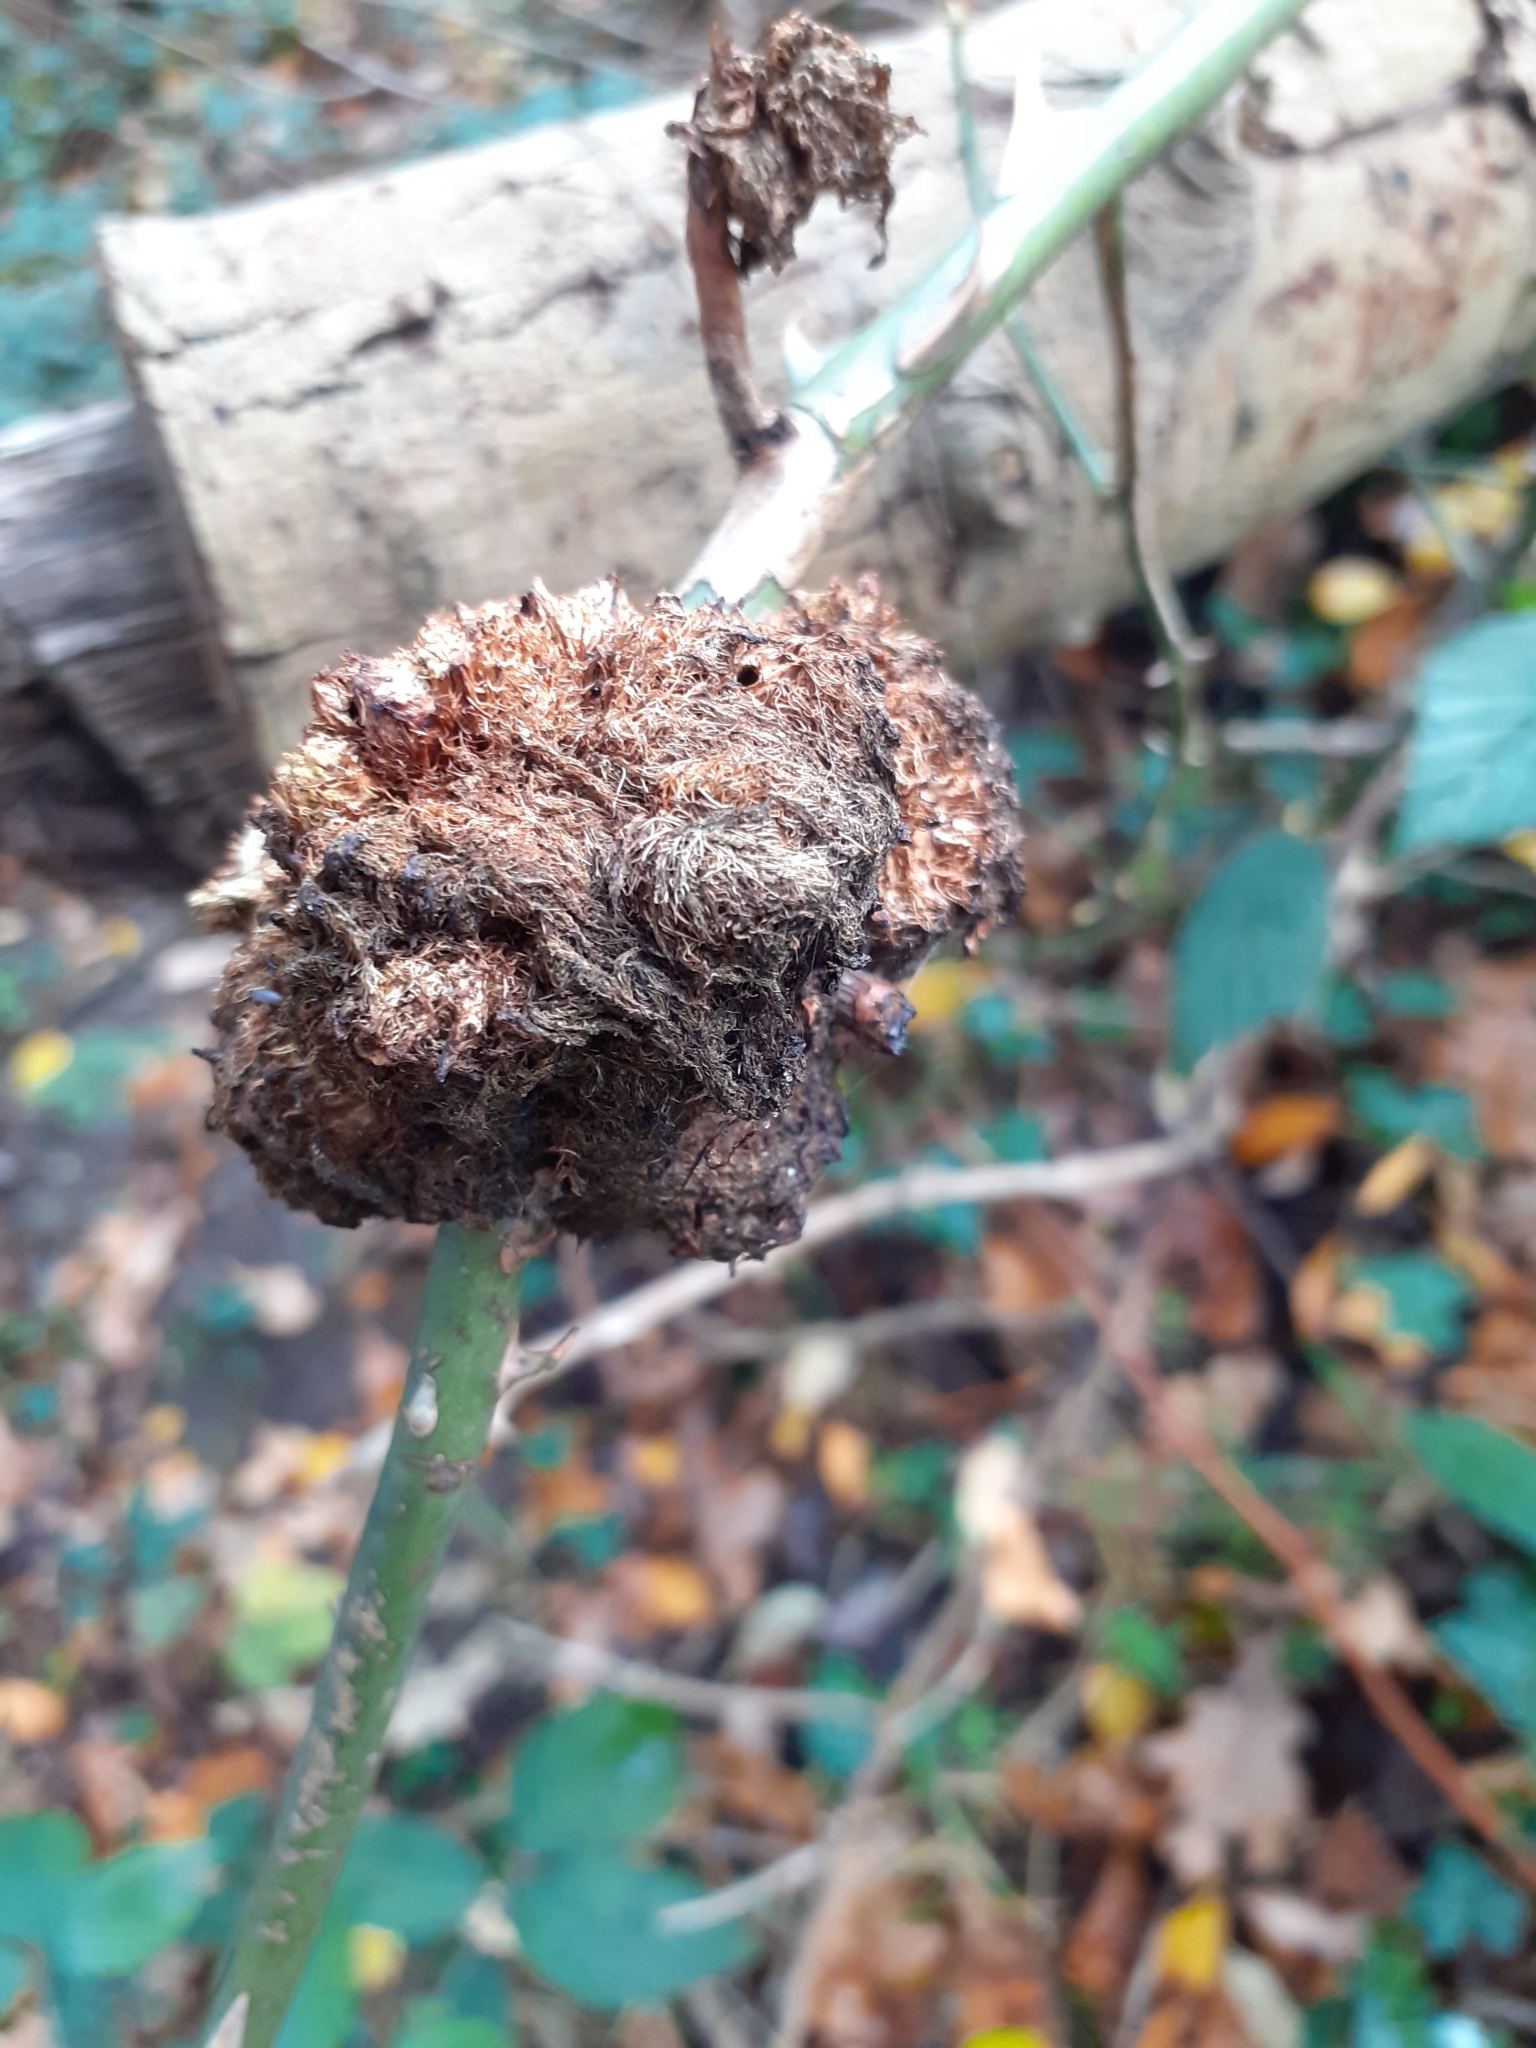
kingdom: Animalia
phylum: Arthropoda
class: Insecta
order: Hymenoptera
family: Cynipidae
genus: Diplolepis
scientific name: Diplolepis rosae
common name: Bedeguar gall
